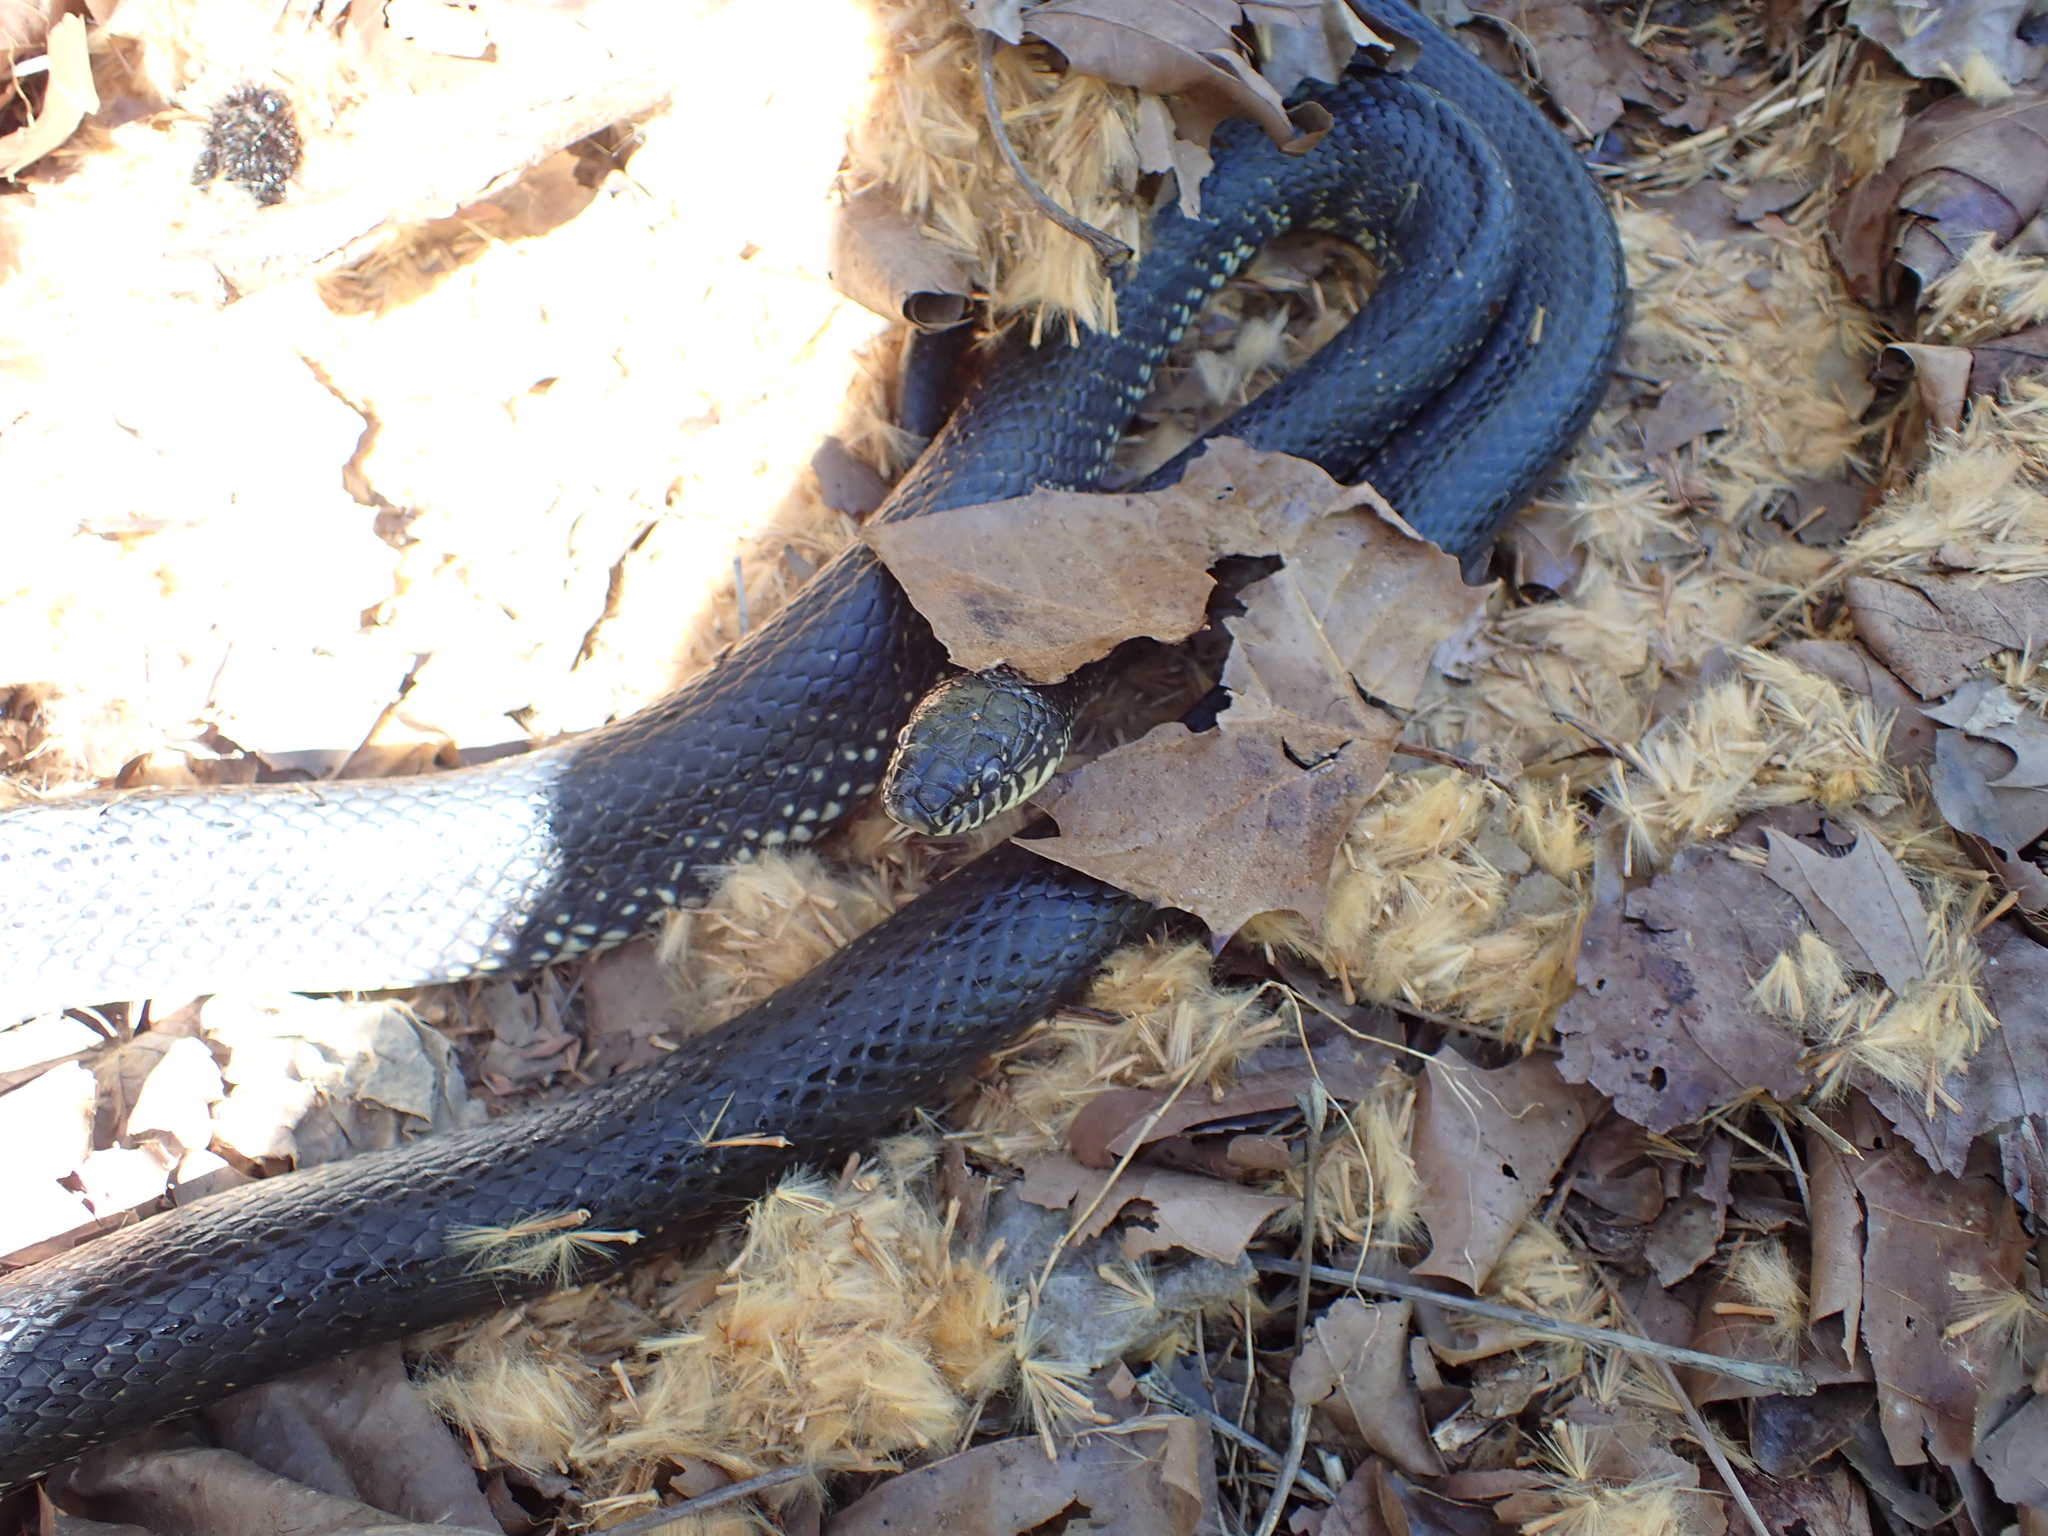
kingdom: Animalia
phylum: Chordata
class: Squamata
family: Colubridae
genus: Lampropeltis
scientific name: Lampropeltis nigra
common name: Black kingsnake
